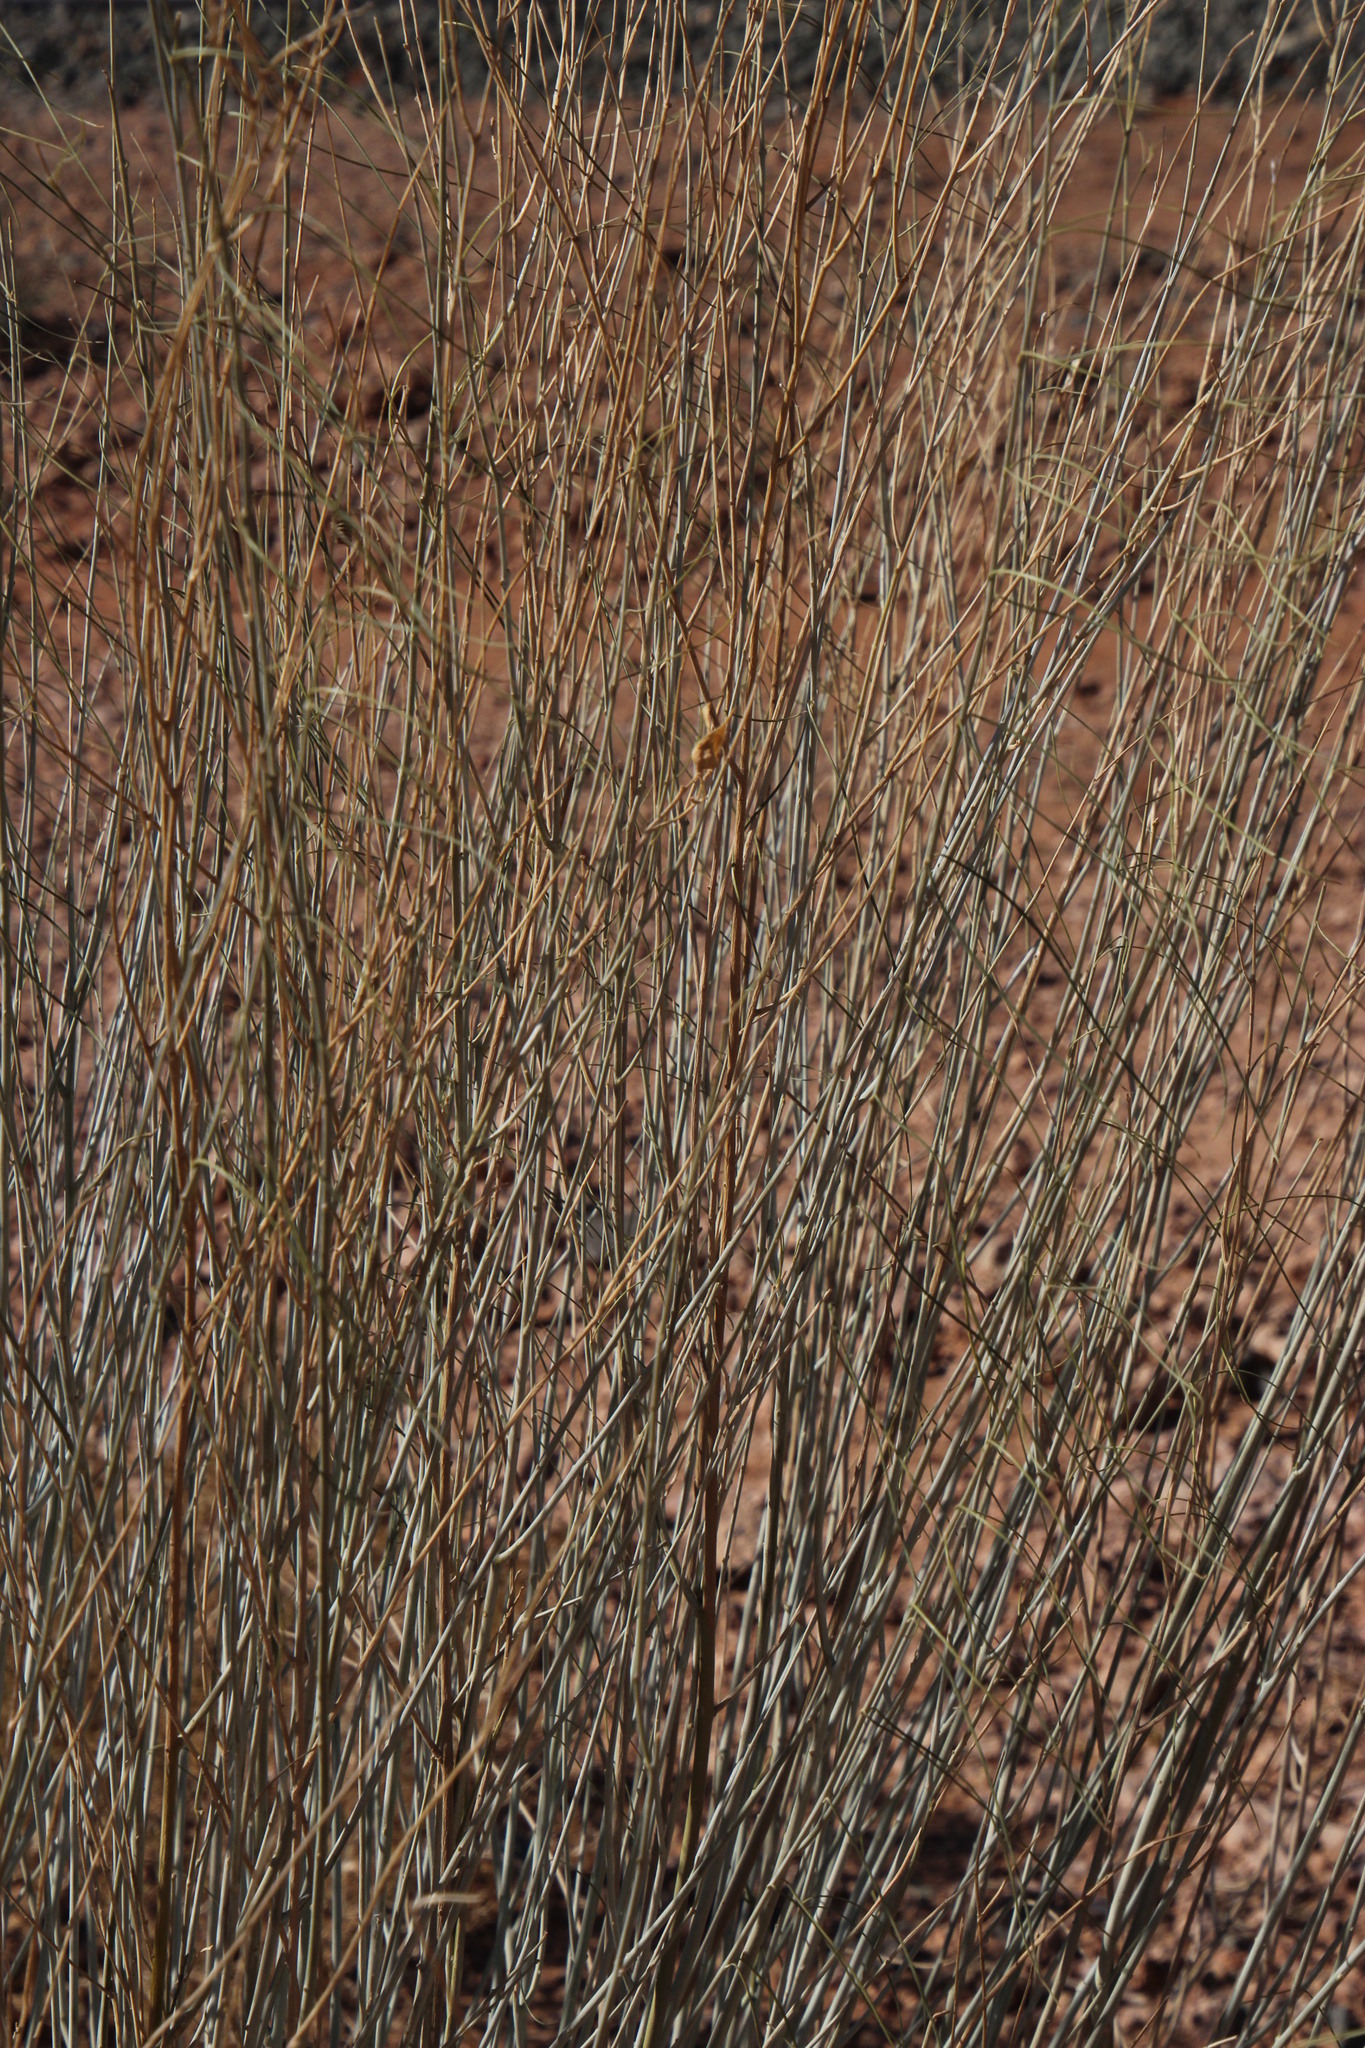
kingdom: Plantae
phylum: Tracheophyta
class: Magnoliopsida
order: Zygophyllales
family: Zygophyllaceae
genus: Sisyndite
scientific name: Sisyndite spartea
